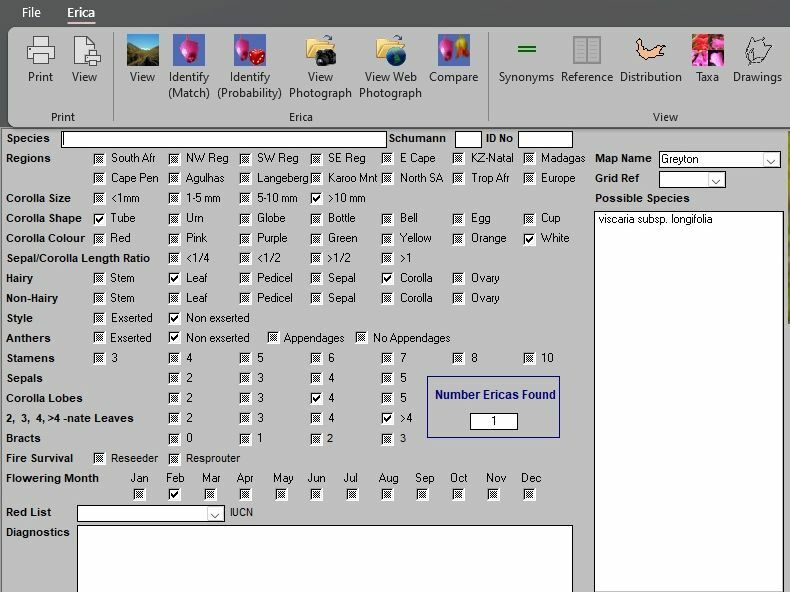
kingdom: Plantae
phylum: Tracheophyta
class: Magnoliopsida
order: Ericales
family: Ericaceae
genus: Erica
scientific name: Erica viscaria
